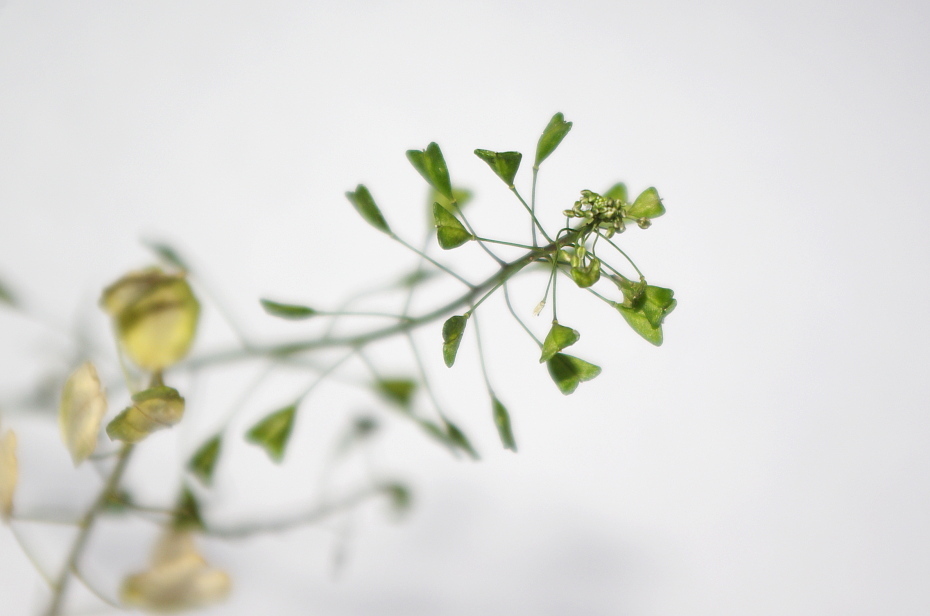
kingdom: Plantae
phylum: Tracheophyta
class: Magnoliopsida
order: Brassicales
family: Brassicaceae
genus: Capsella
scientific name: Capsella bursa-pastoris
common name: Shepherd's purse
